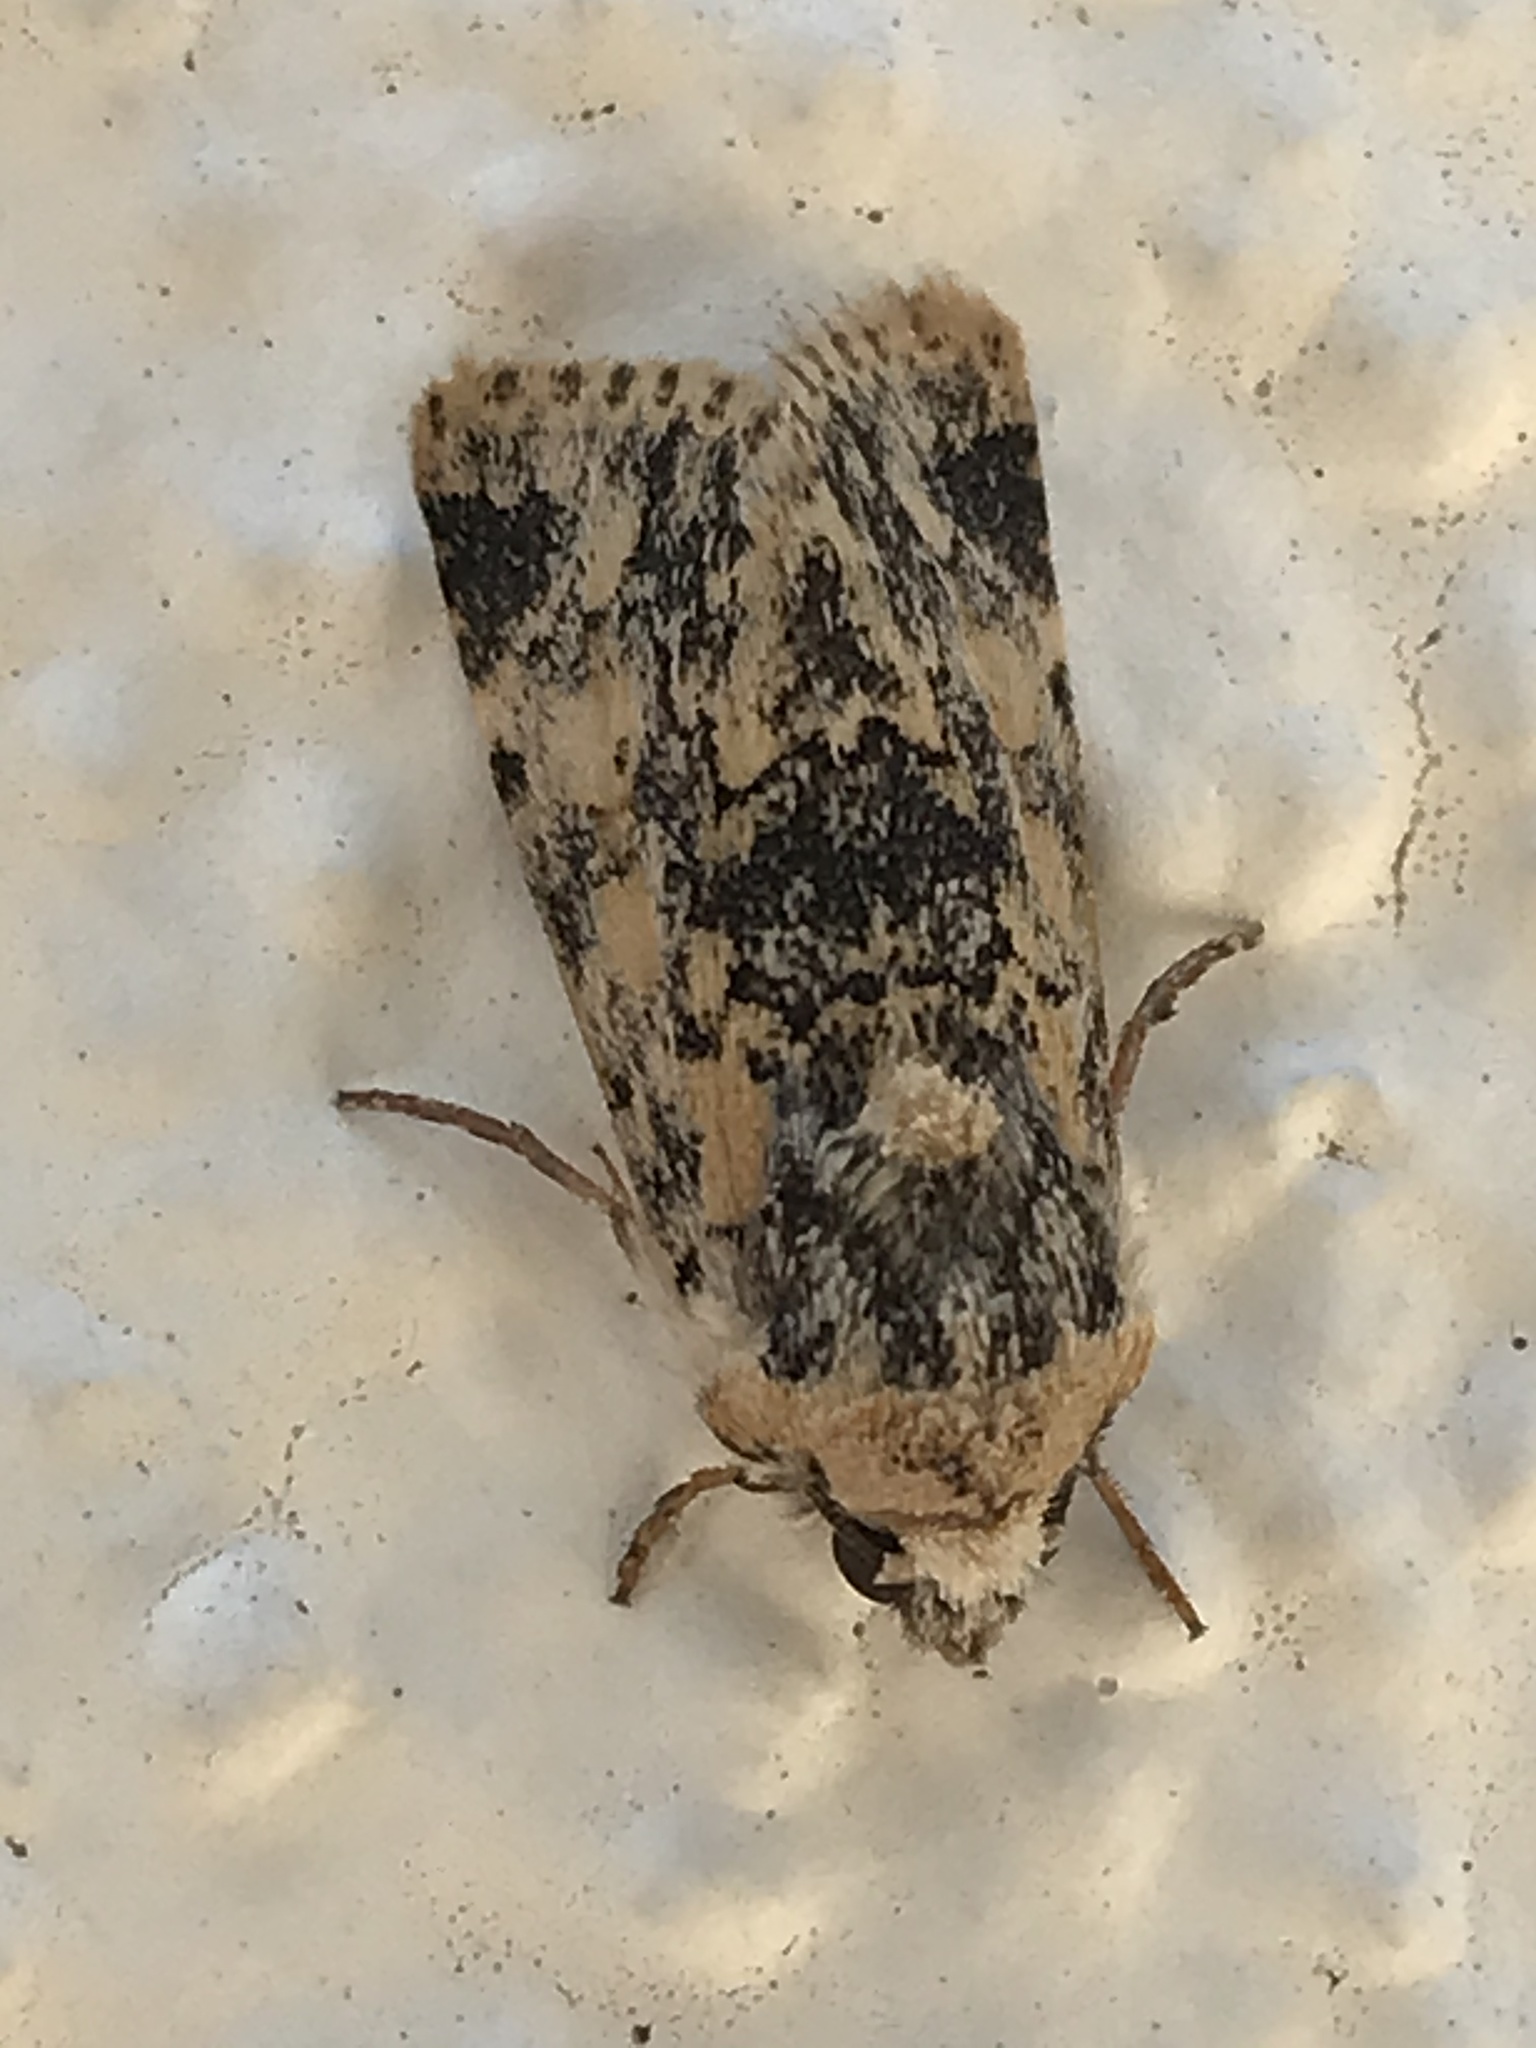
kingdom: Animalia
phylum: Arthropoda
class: Insecta
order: Lepidoptera
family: Noctuidae
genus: Sympistis
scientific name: Sympistis singularis
